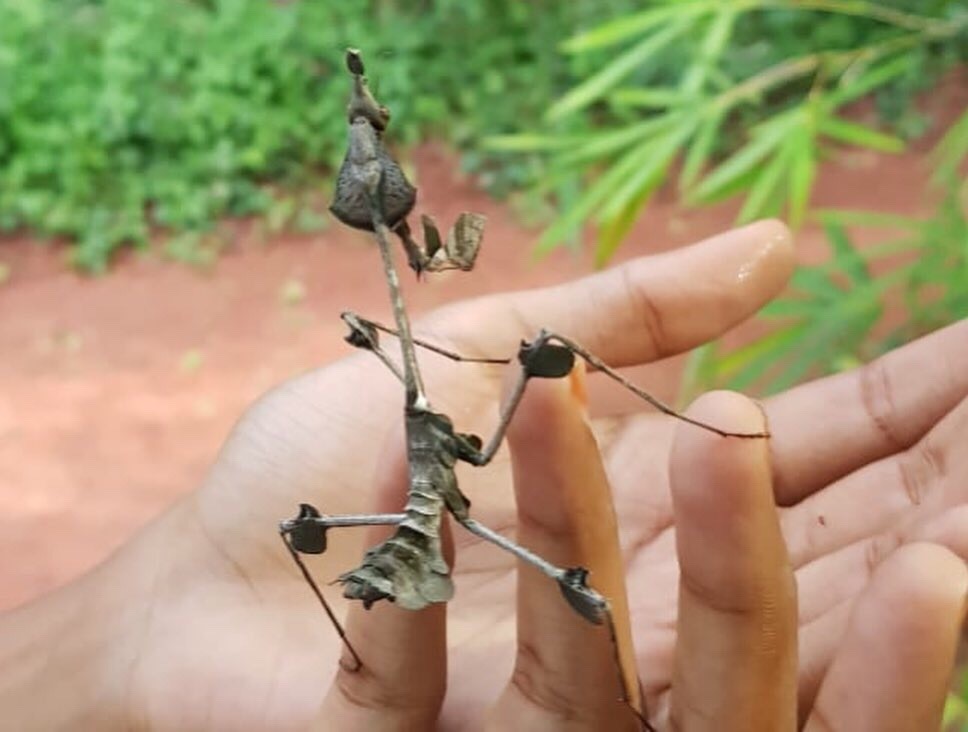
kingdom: Animalia
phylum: Arthropoda
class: Insecta
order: Mantodea
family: Empusidae
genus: Gongylus
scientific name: Gongylus gongylodes
